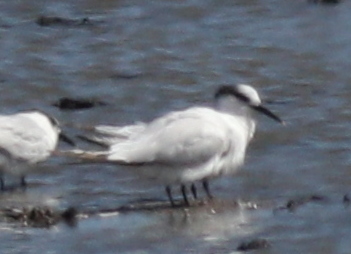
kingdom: Animalia
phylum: Chordata
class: Aves
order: Charadriiformes
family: Laridae
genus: Thalasseus
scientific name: Thalasseus sandvicensis
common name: Sandwich tern
